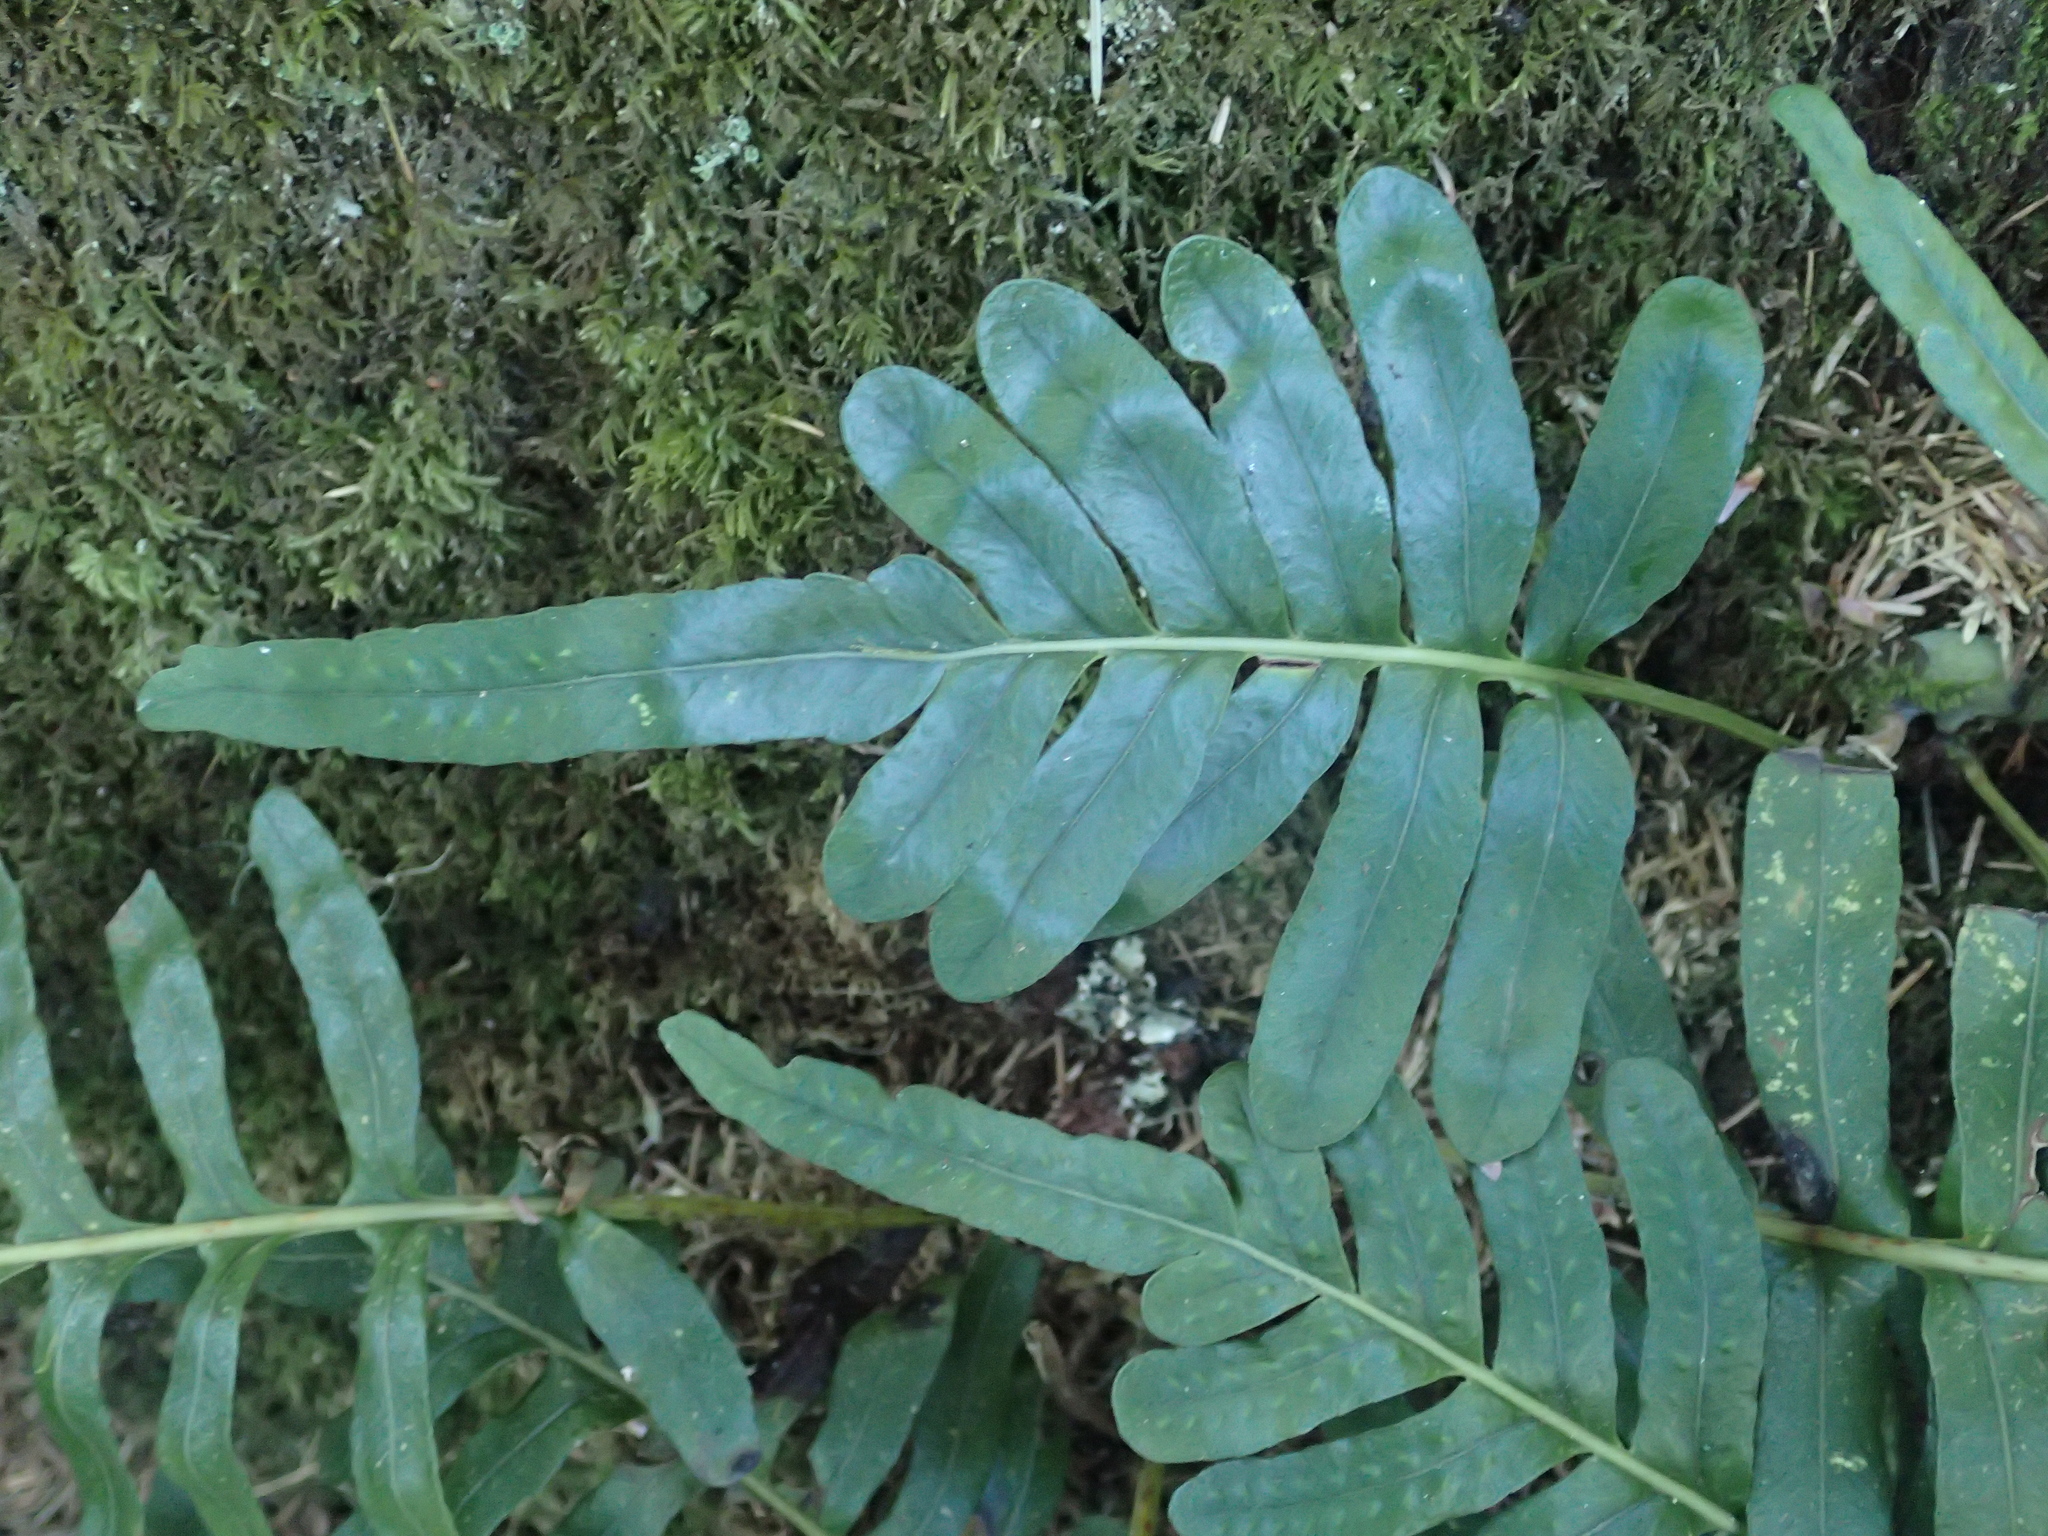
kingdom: Plantae
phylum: Tracheophyta
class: Polypodiopsida
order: Polypodiales
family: Polypodiaceae
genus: Polypodium
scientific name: Polypodium scouleri
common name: Scouler's polypody
